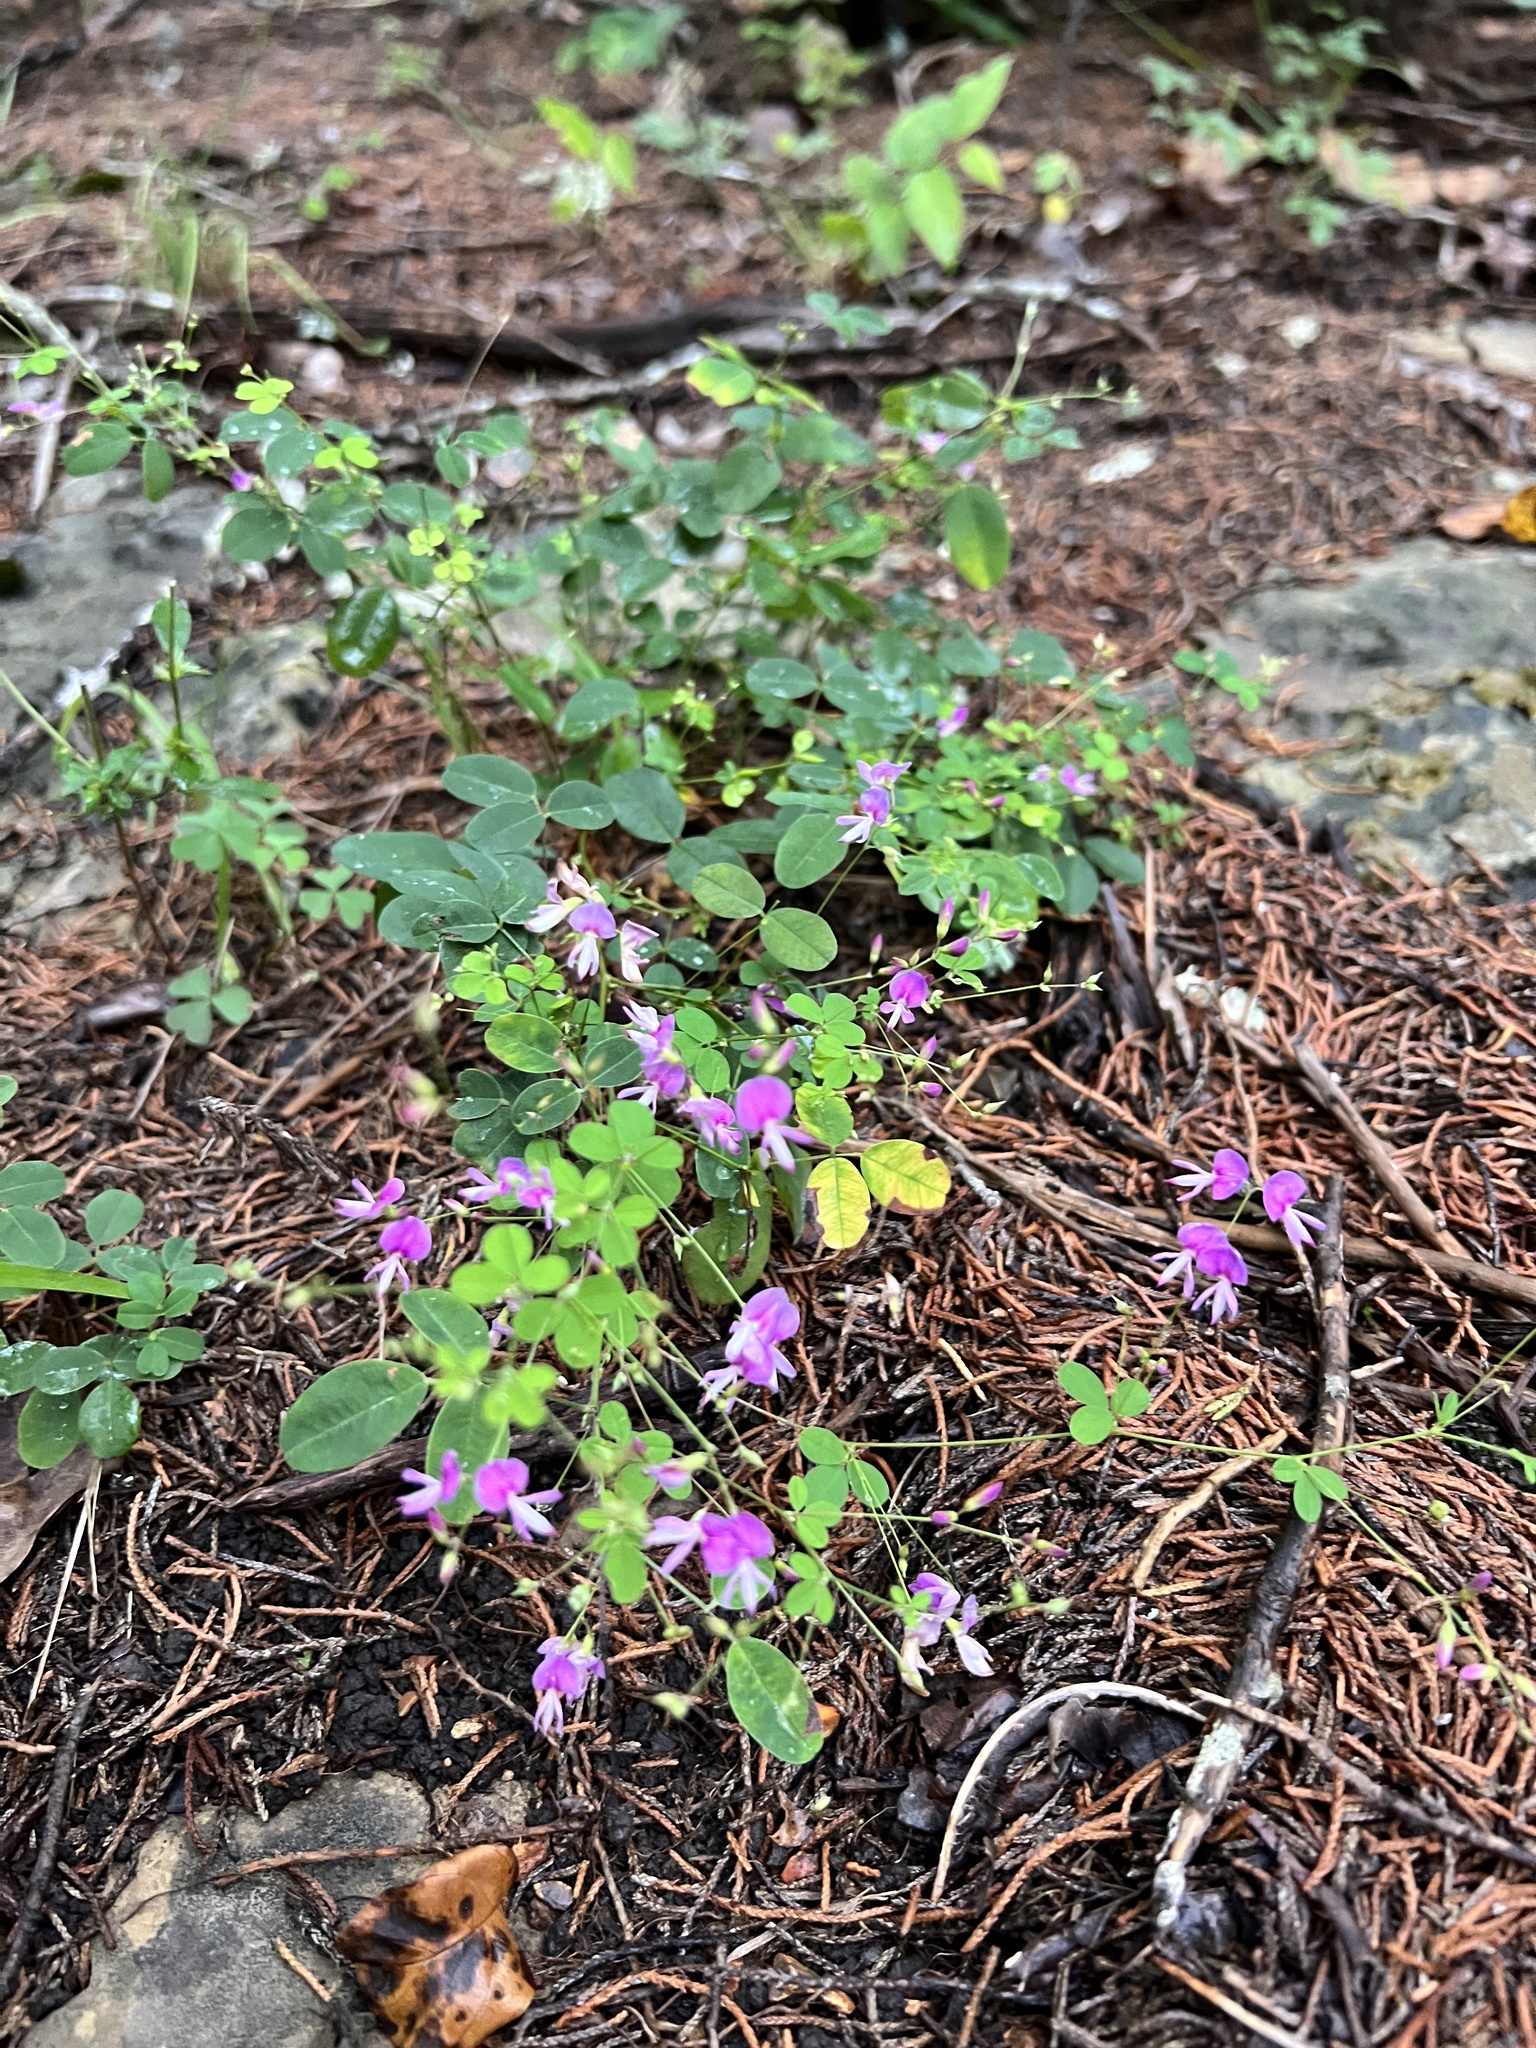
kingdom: Plantae
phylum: Tracheophyta
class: Magnoliopsida
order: Fabales
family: Fabaceae
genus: Lespedeza
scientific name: Lespedeza
